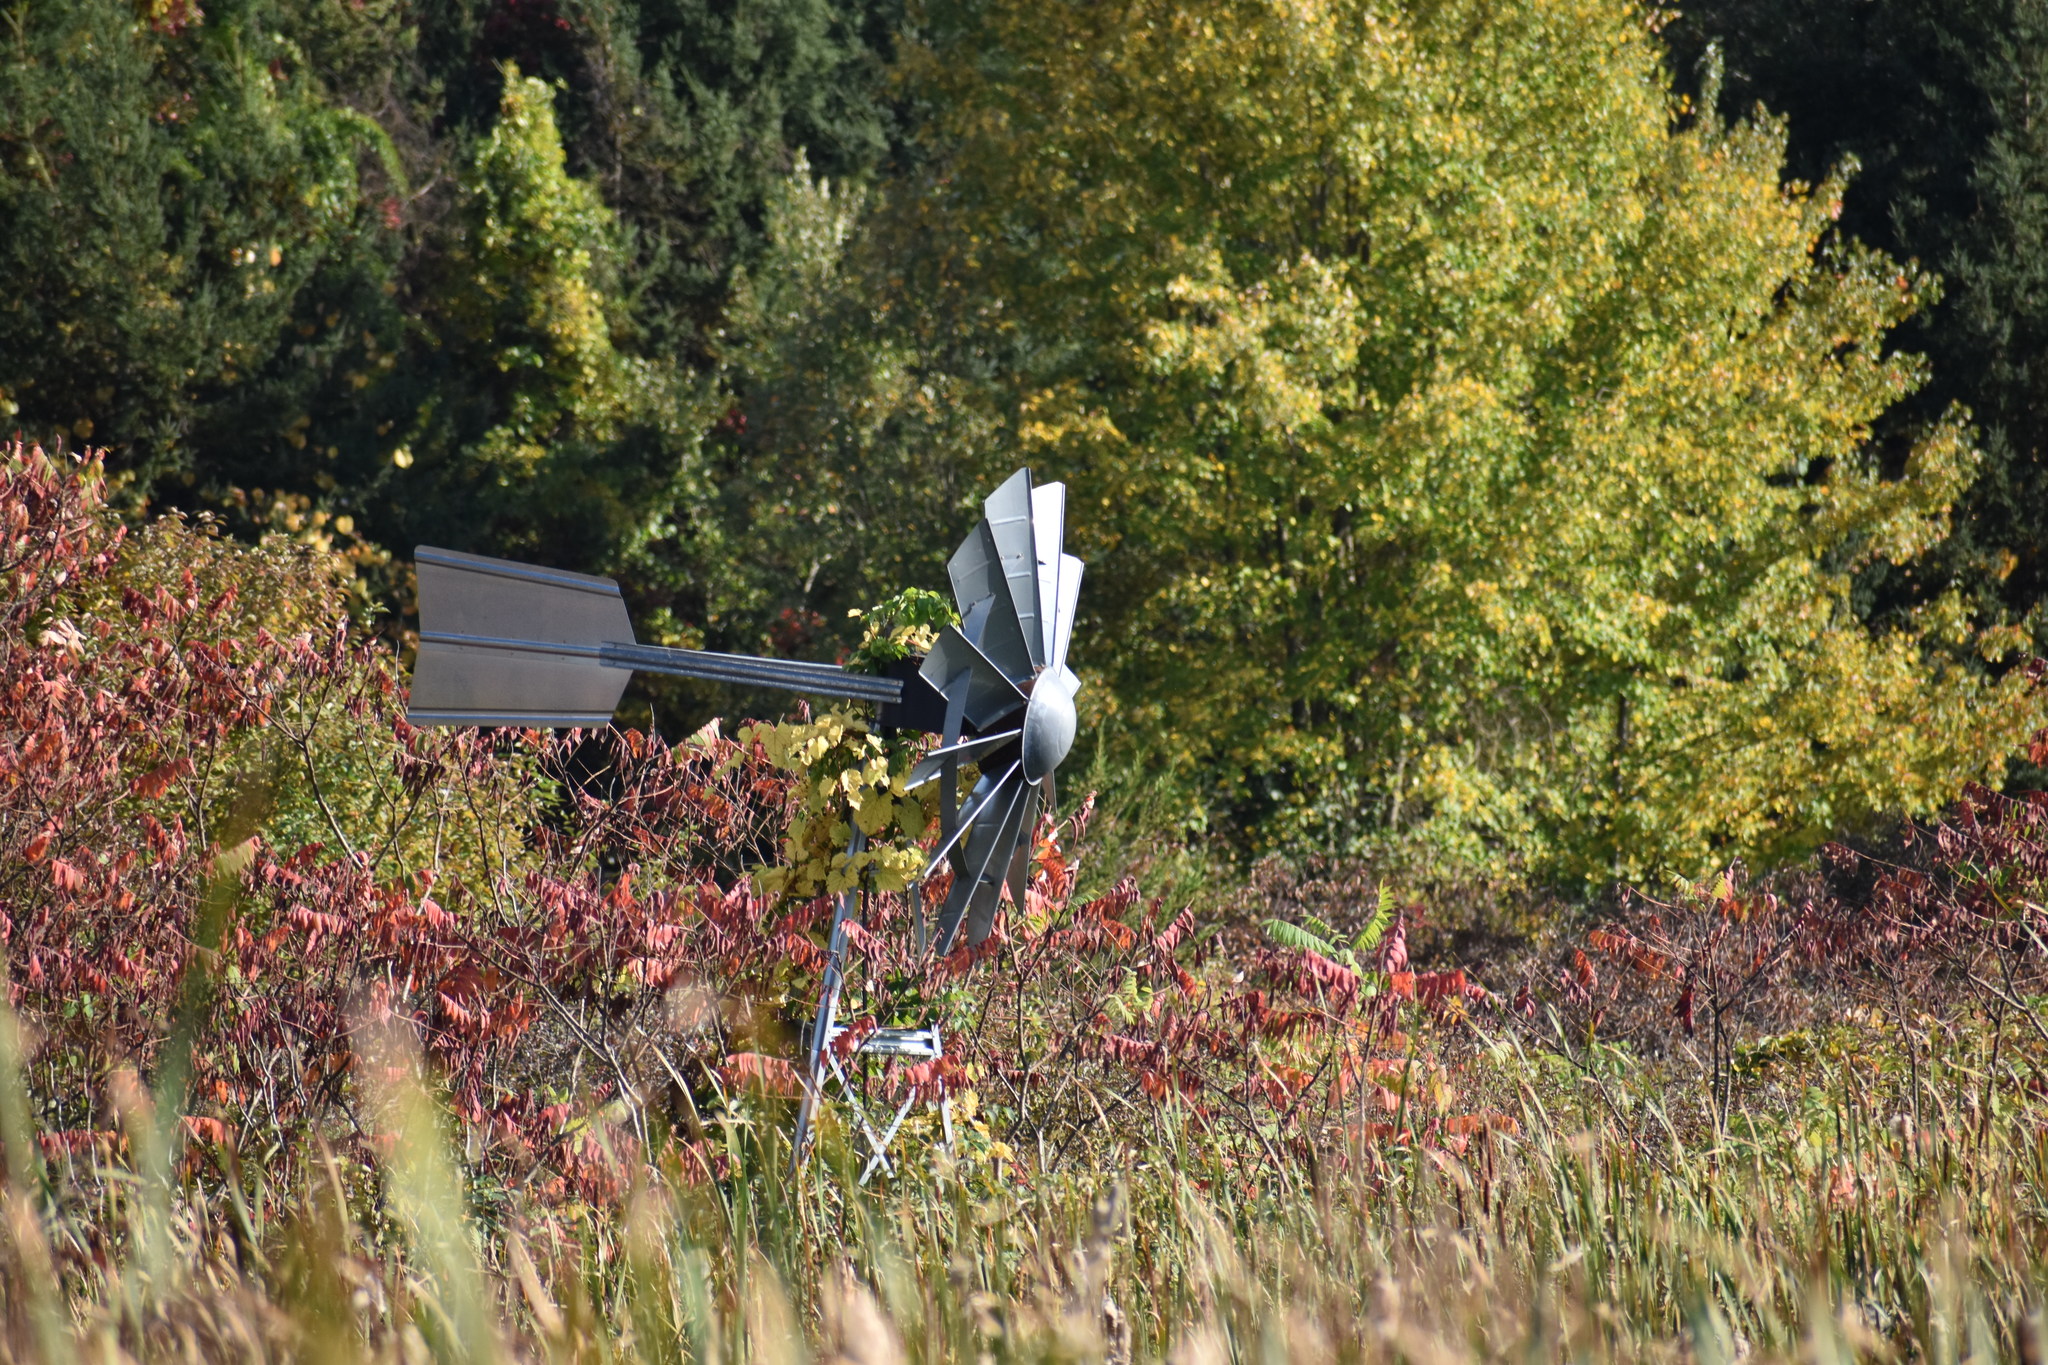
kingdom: Plantae
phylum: Tracheophyta
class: Magnoliopsida
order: Sapindales
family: Anacardiaceae
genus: Rhus
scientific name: Rhus
